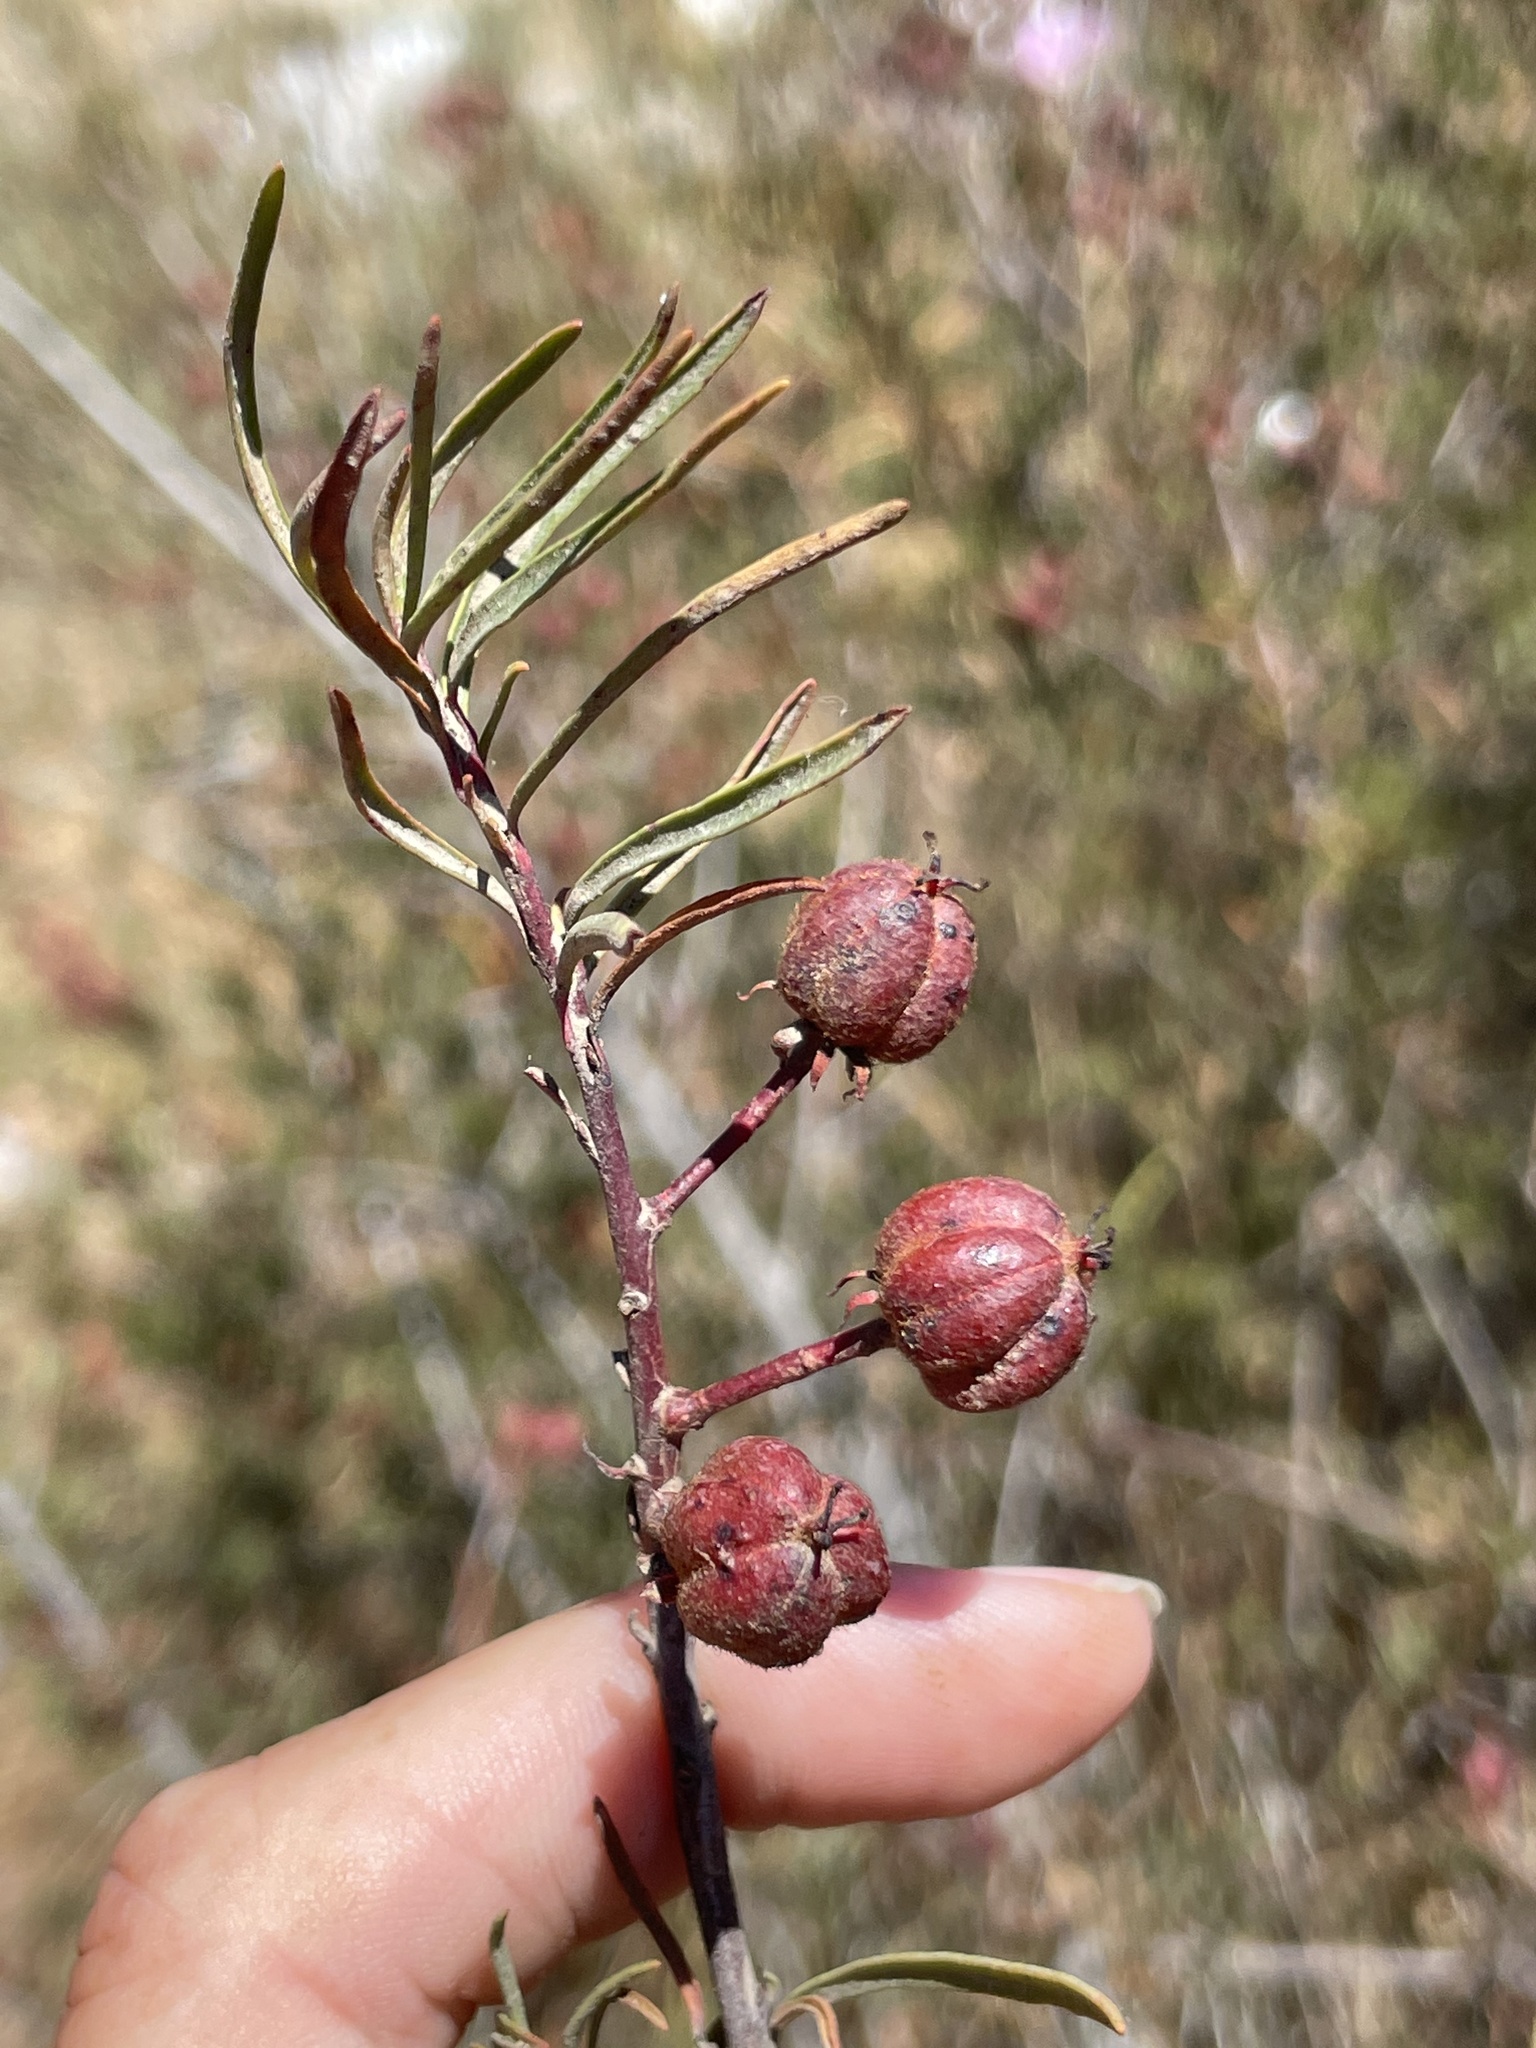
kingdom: Plantae
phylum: Tracheophyta
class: Magnoliopsida
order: Malpighiales
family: Picrodendraceae
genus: Tetracoccus
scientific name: Tetracoccus dioicus
